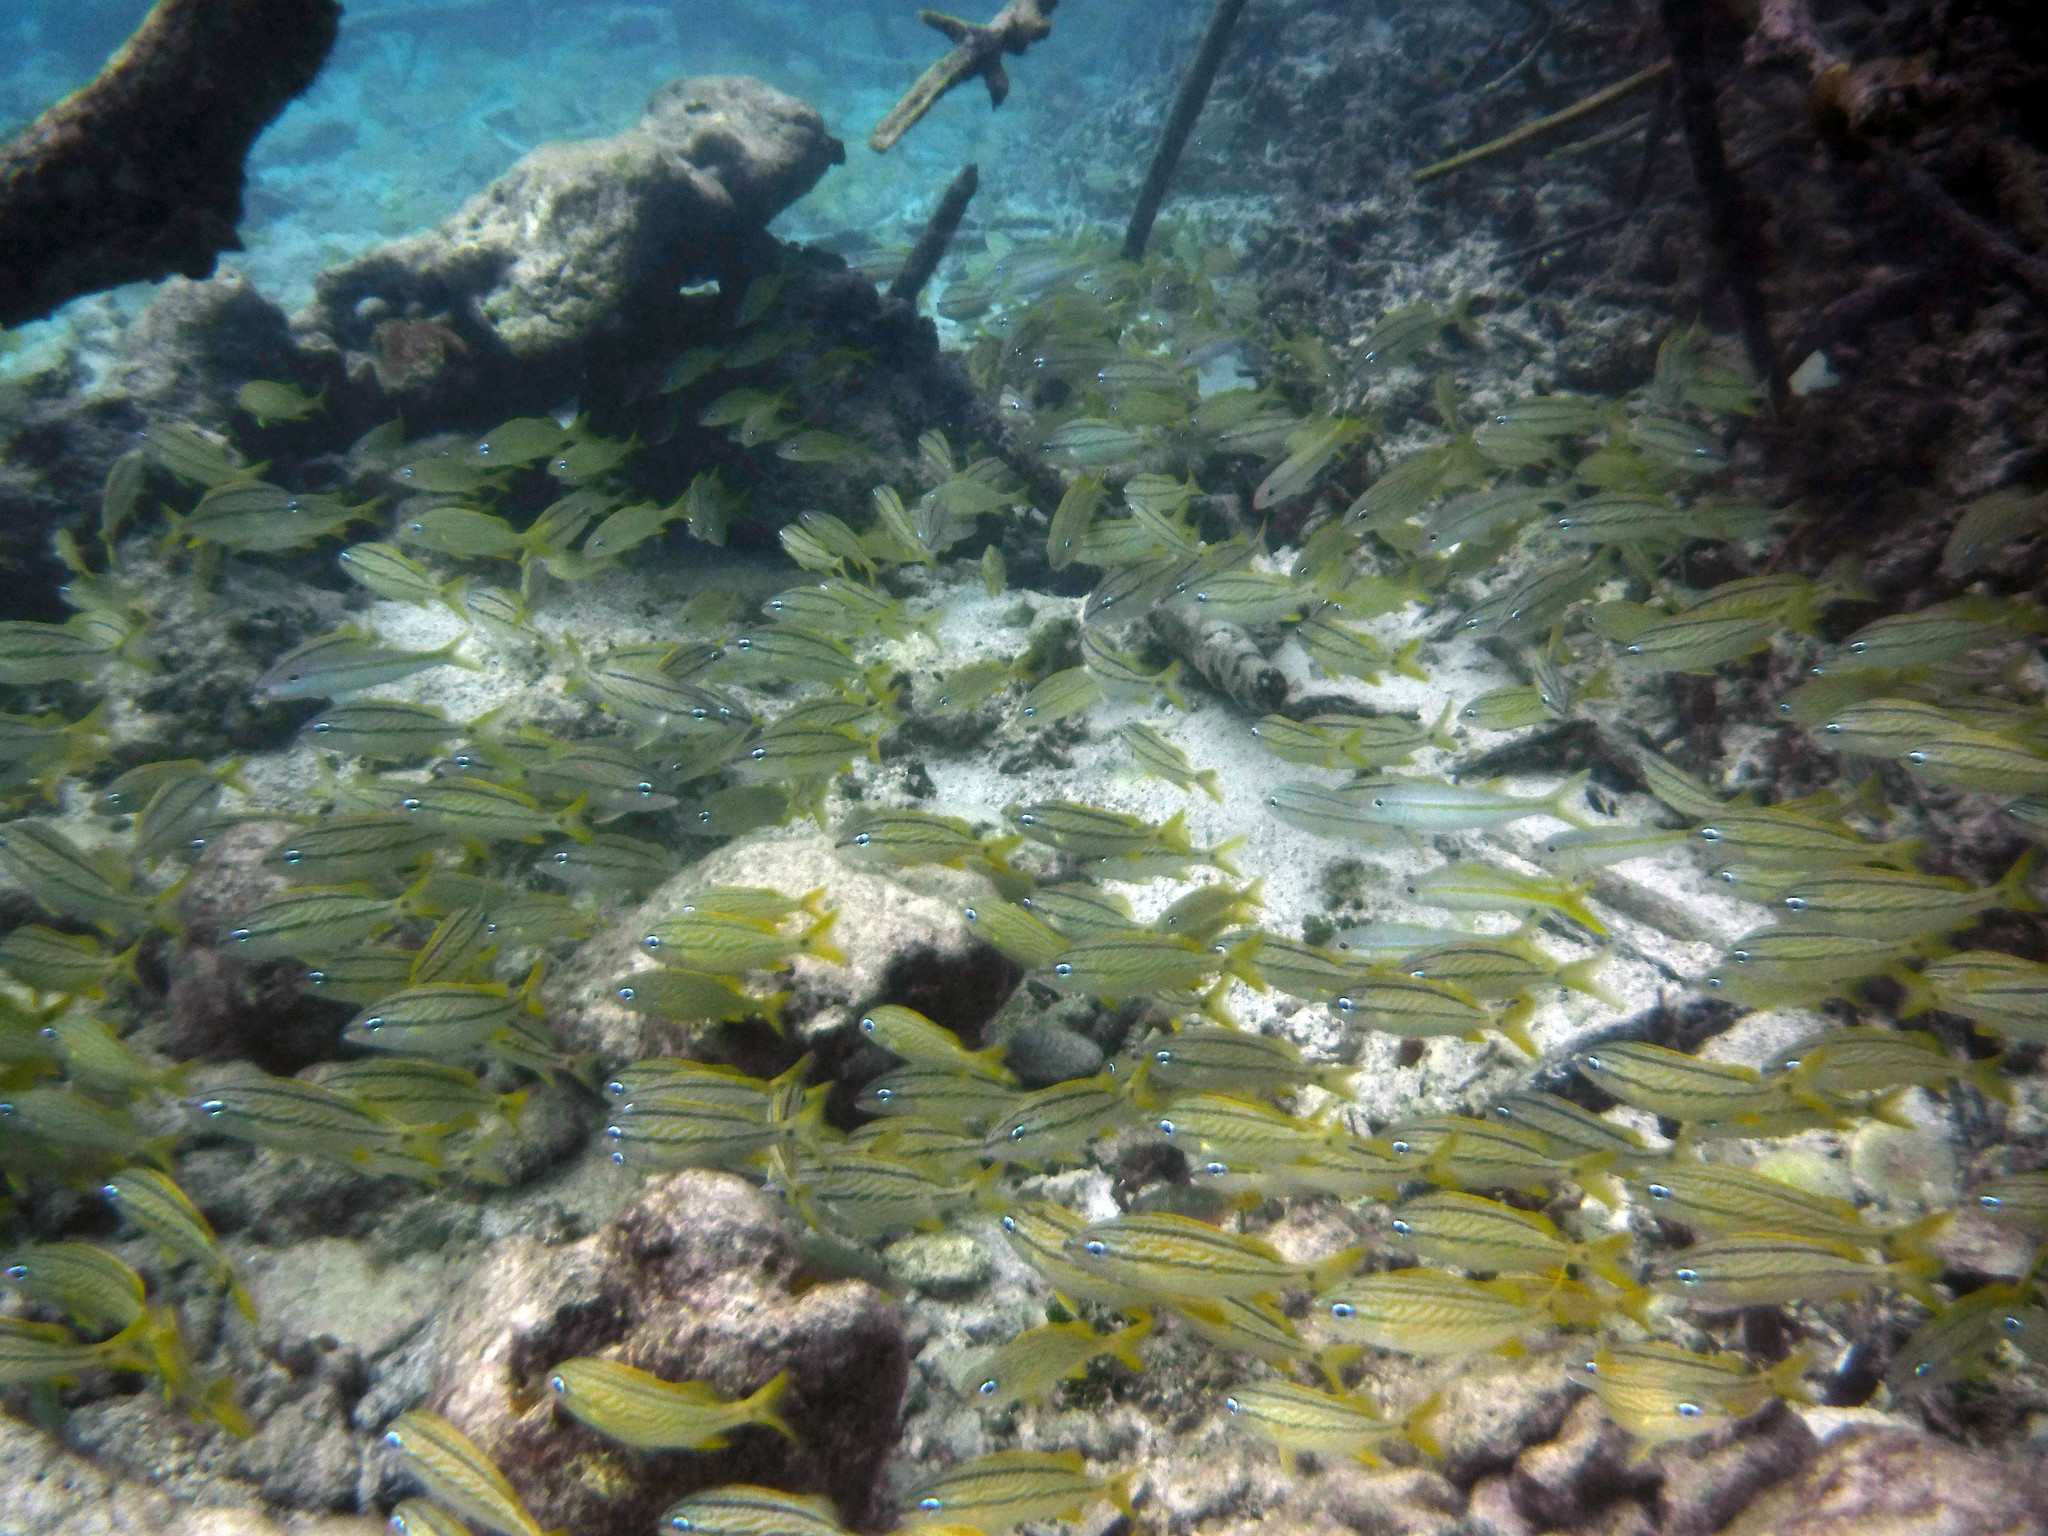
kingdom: Animalia
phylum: Chordata
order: Perciformes
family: Haemulidae
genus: Haemulon
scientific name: Haemulon flavolineatum
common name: French grunt
